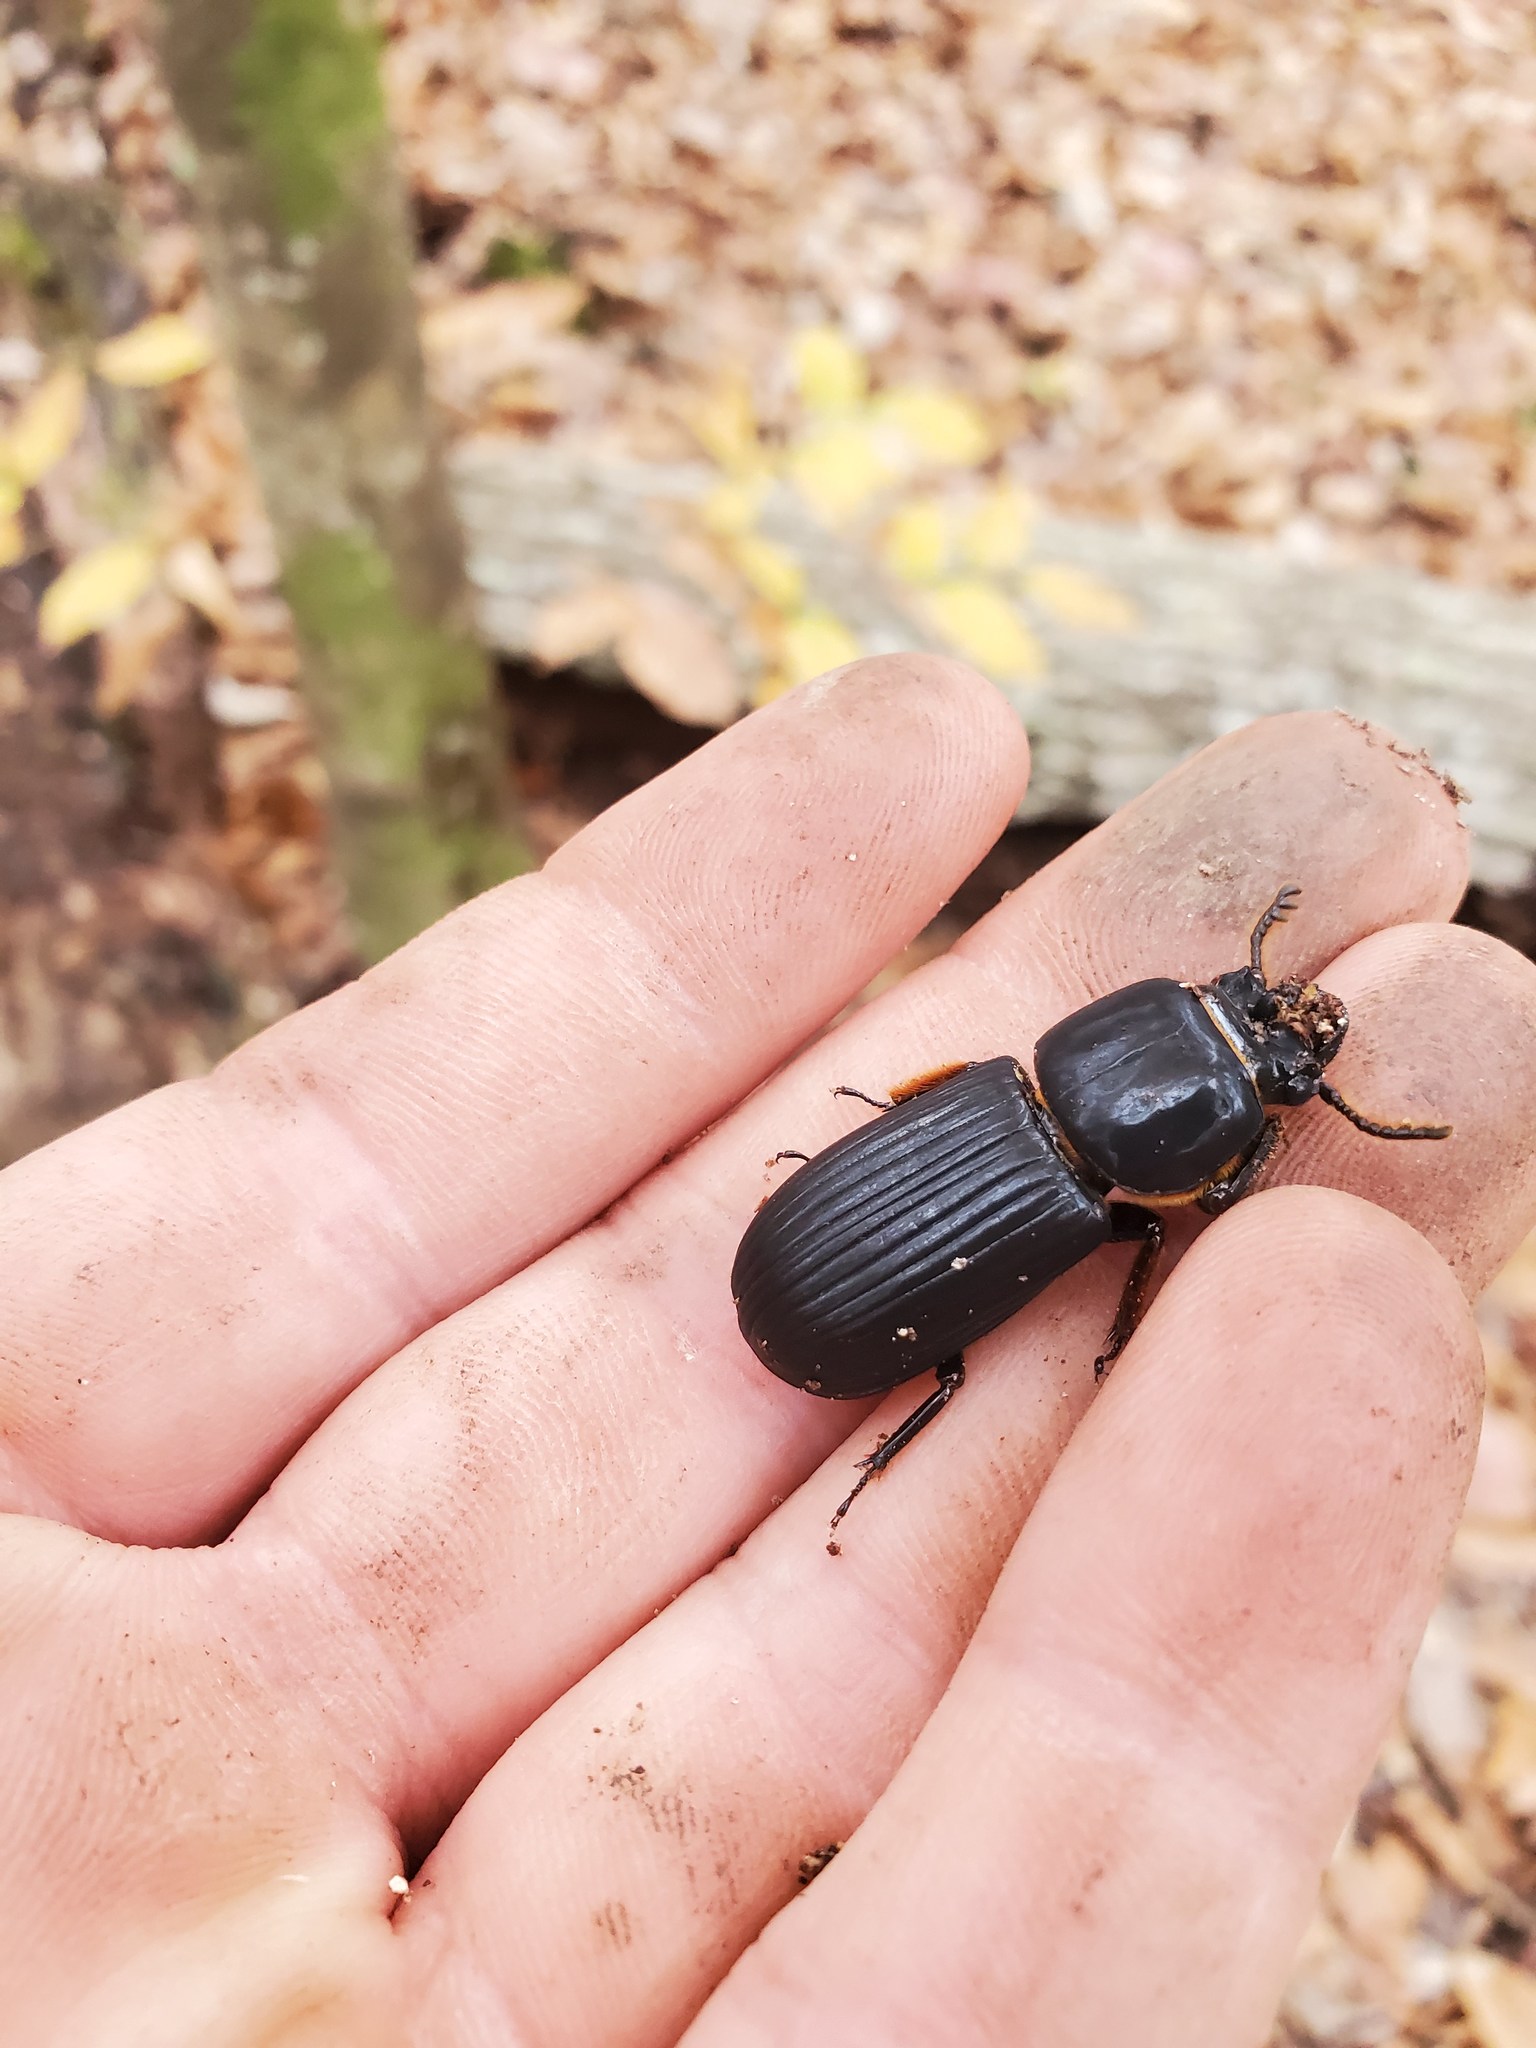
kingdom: Animalia
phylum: Arthropoda
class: Insecta
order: Coleoptera
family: Passalidae
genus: Odontotaenius
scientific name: Odontotaenius disjunctus
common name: Patent leather beetle
